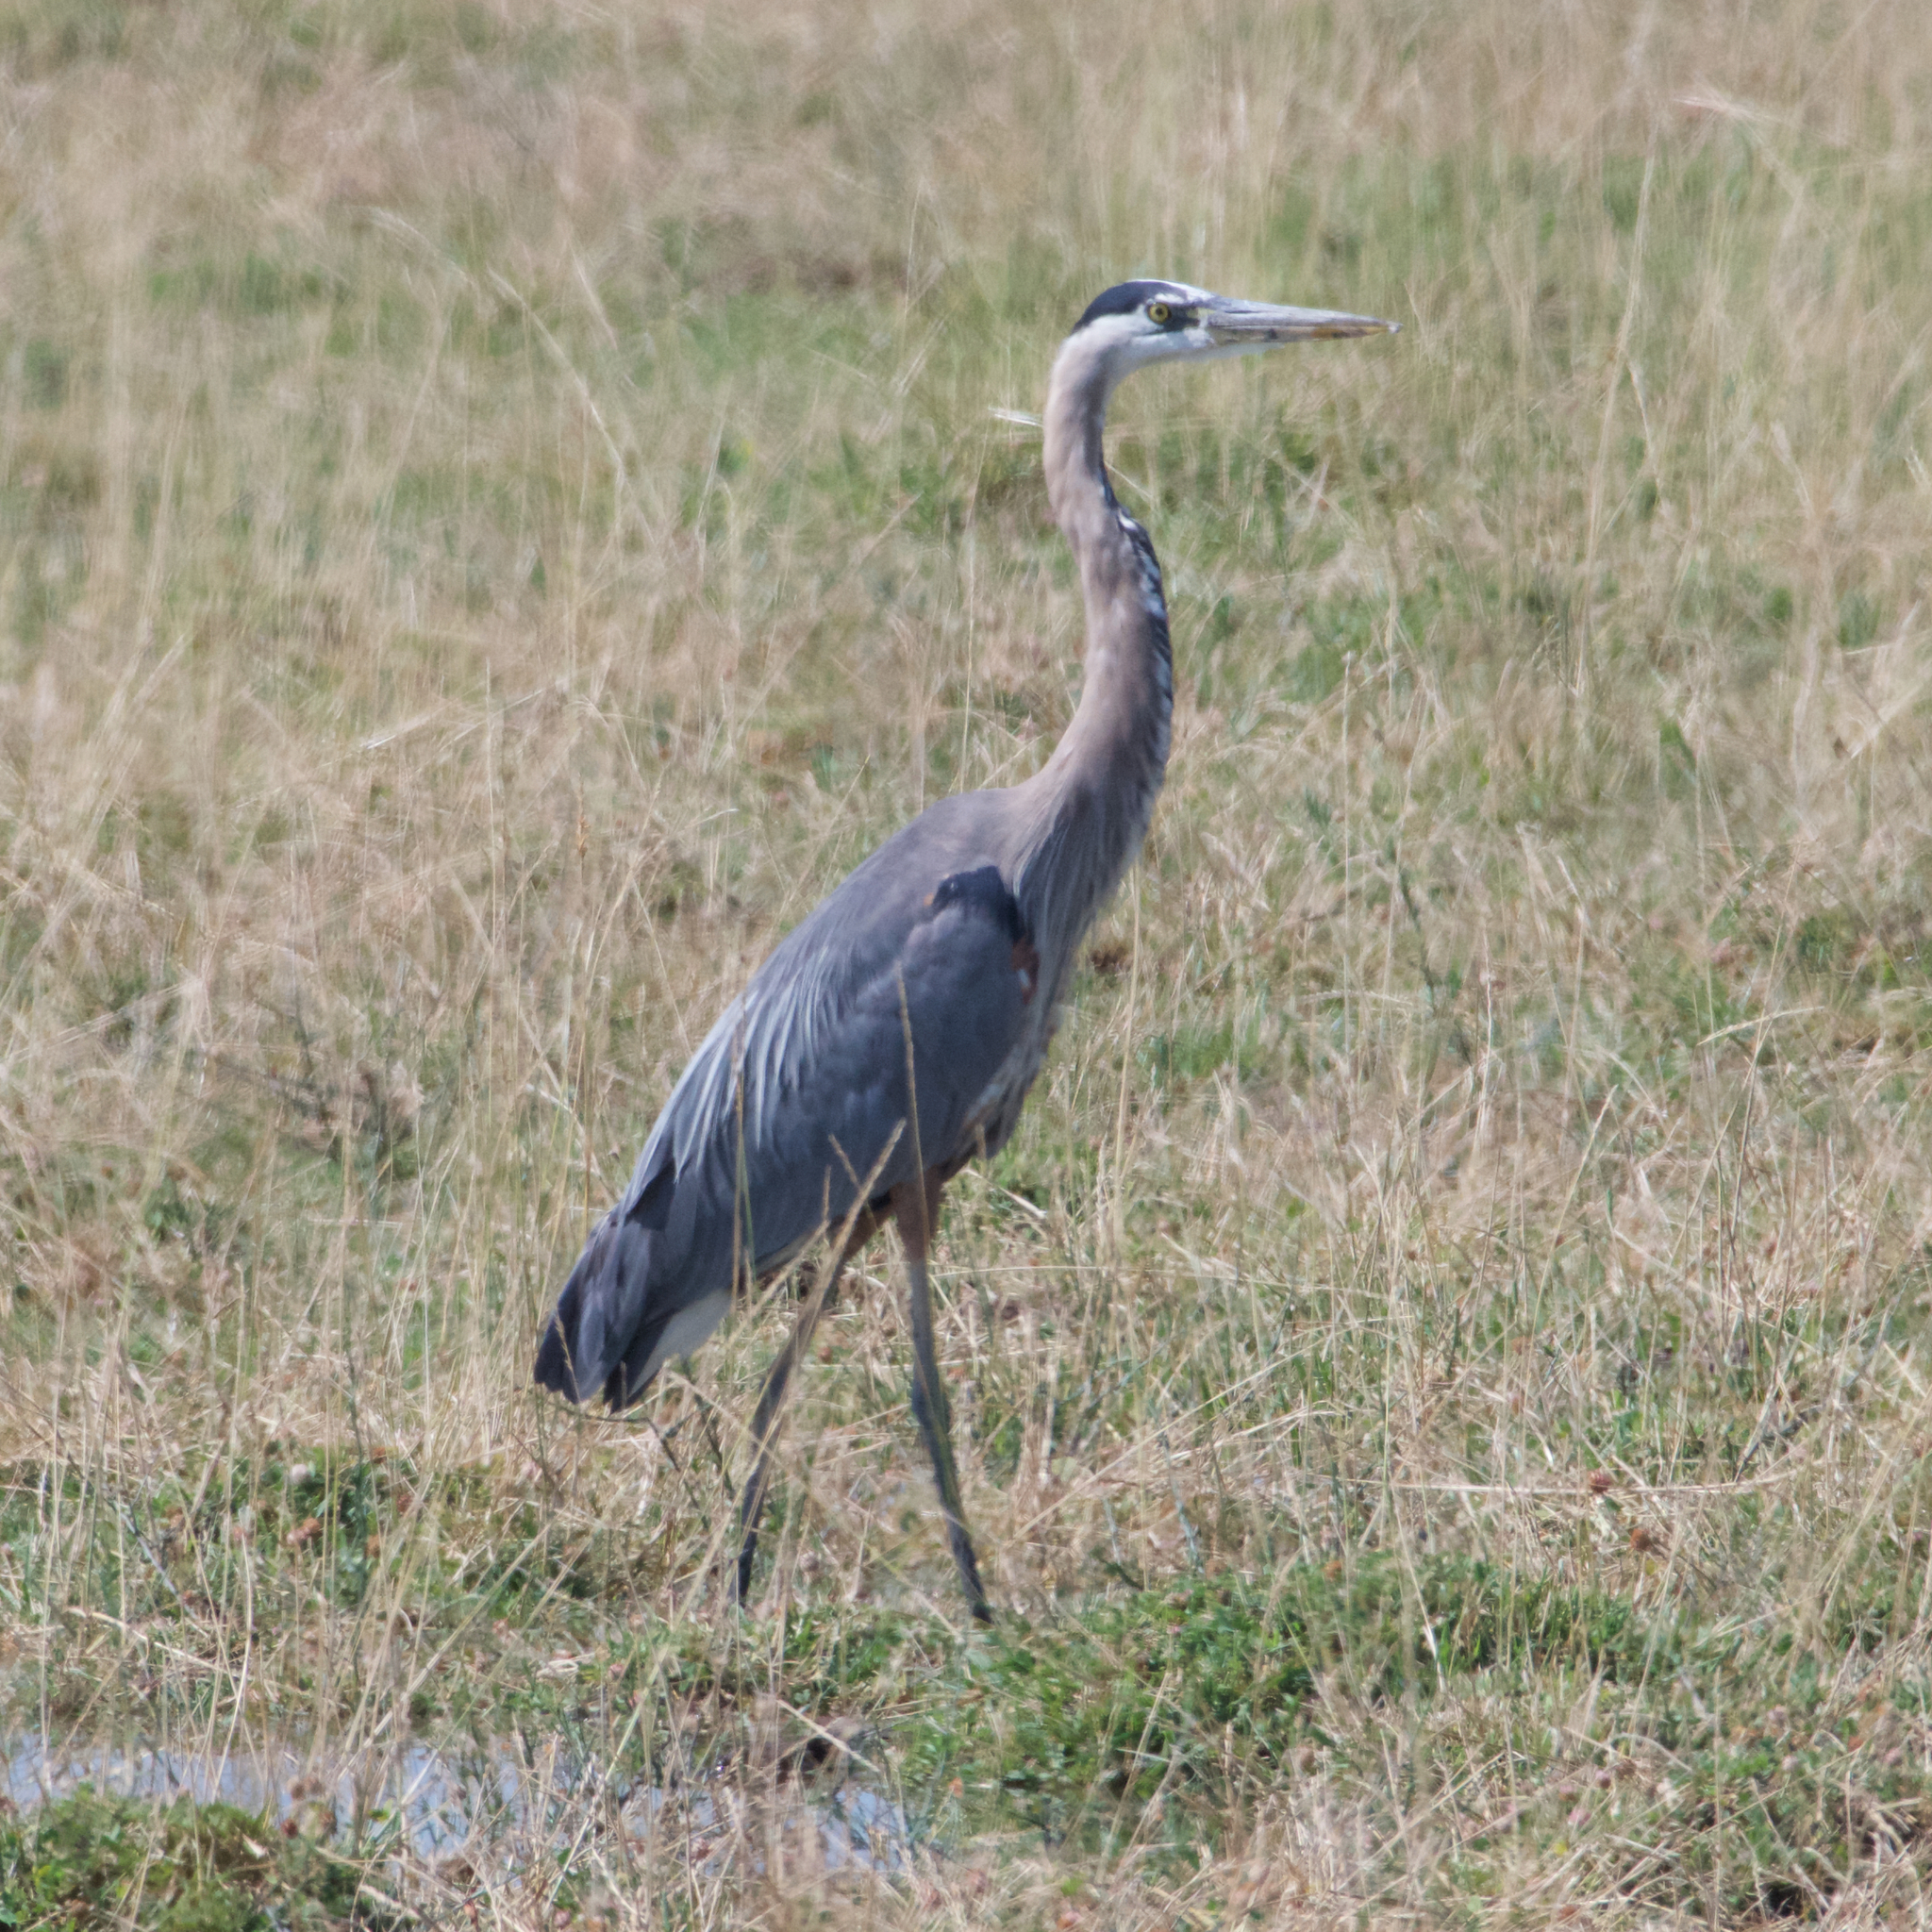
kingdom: Animalia
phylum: Chordata
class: Aves
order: Pelecaniformes
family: Ardeidae
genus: Ardea
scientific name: Ardea herodias
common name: Great blue heron
